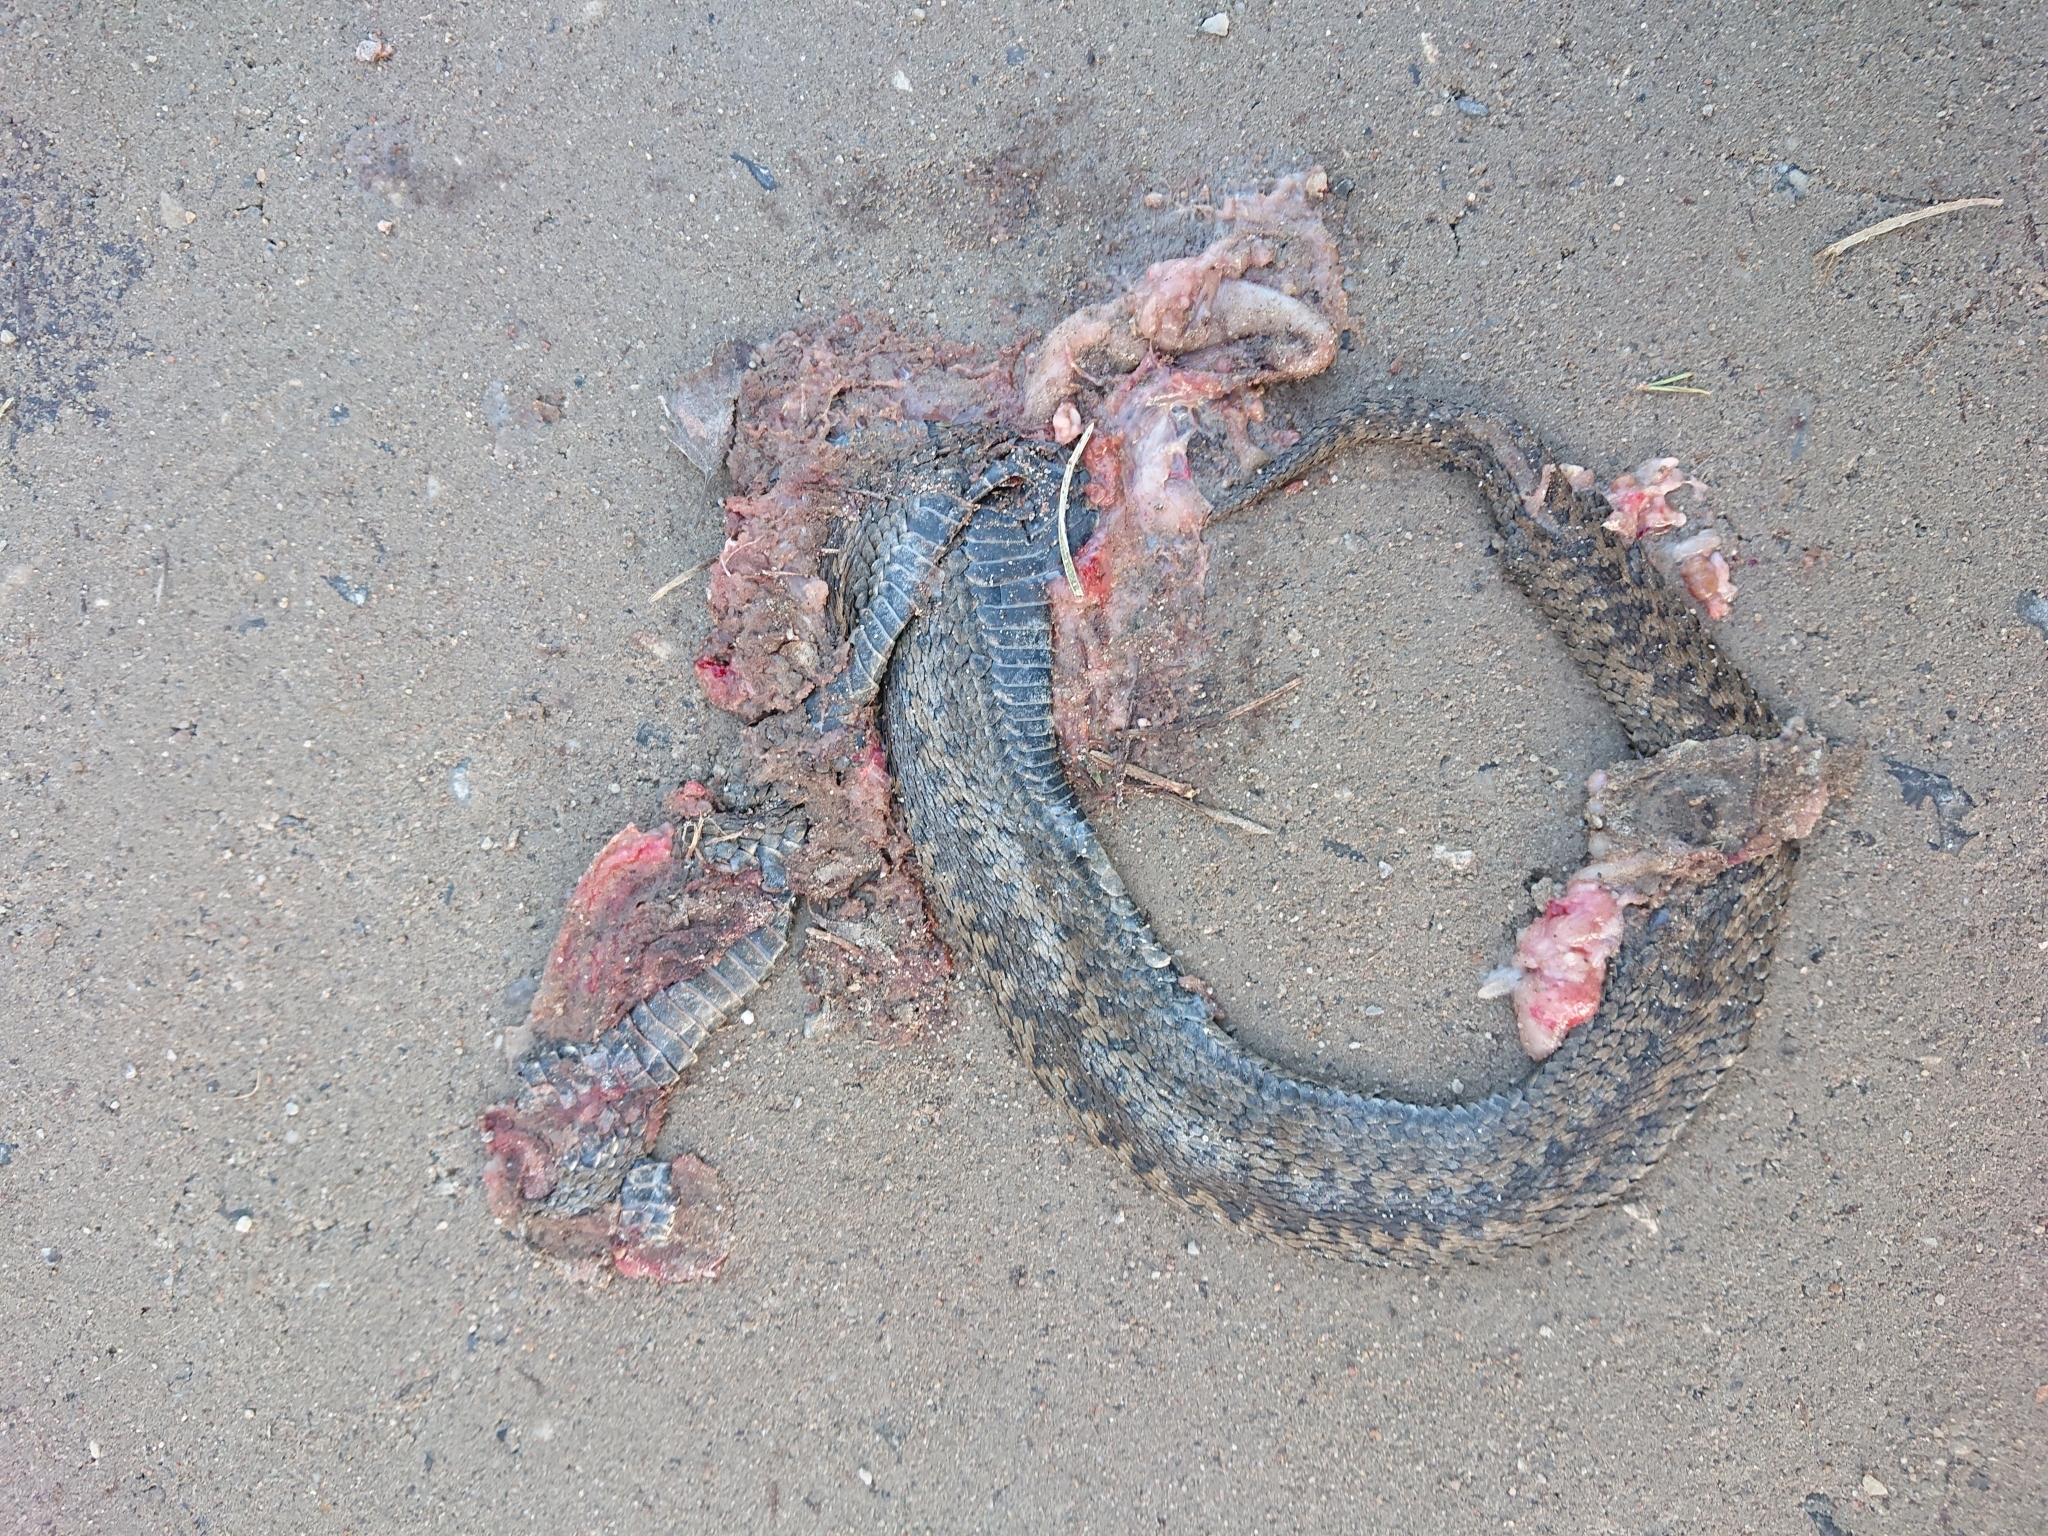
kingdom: Animalia
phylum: Chordata
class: Squamata
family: Viperidae
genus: Vipera
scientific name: Vipera berus
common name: Adder
